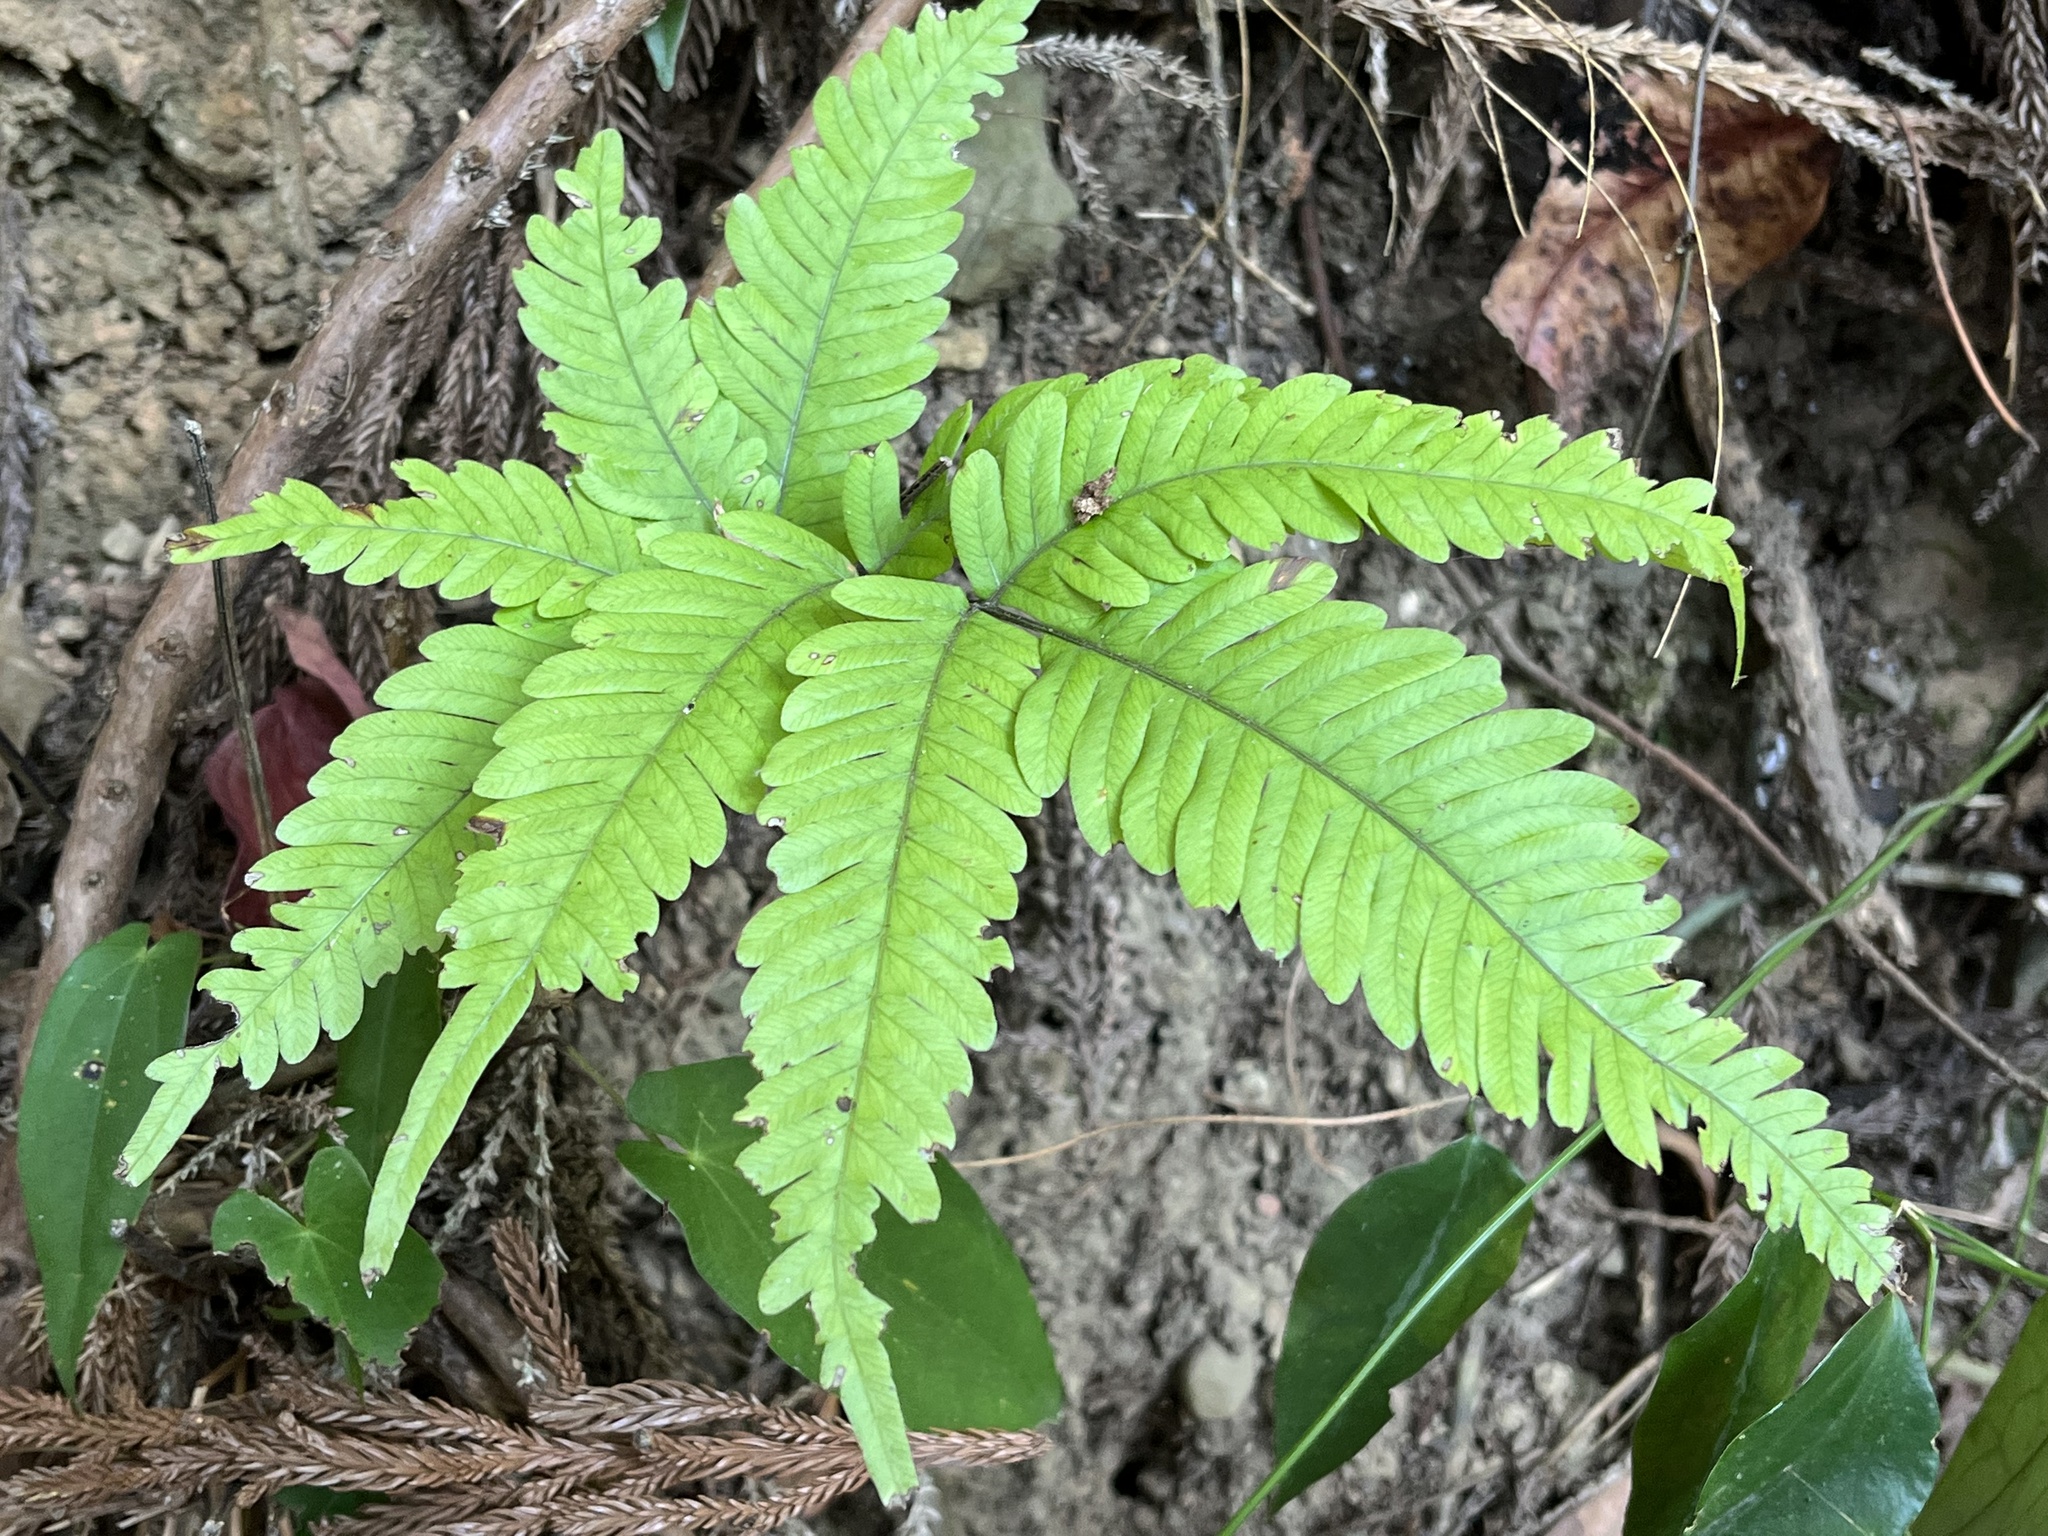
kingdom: Plantae
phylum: Tracheophyta
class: Polypodiopsida
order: Polypodiales
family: Pteridaceae
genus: Pteris
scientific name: Pteris arisanensis
